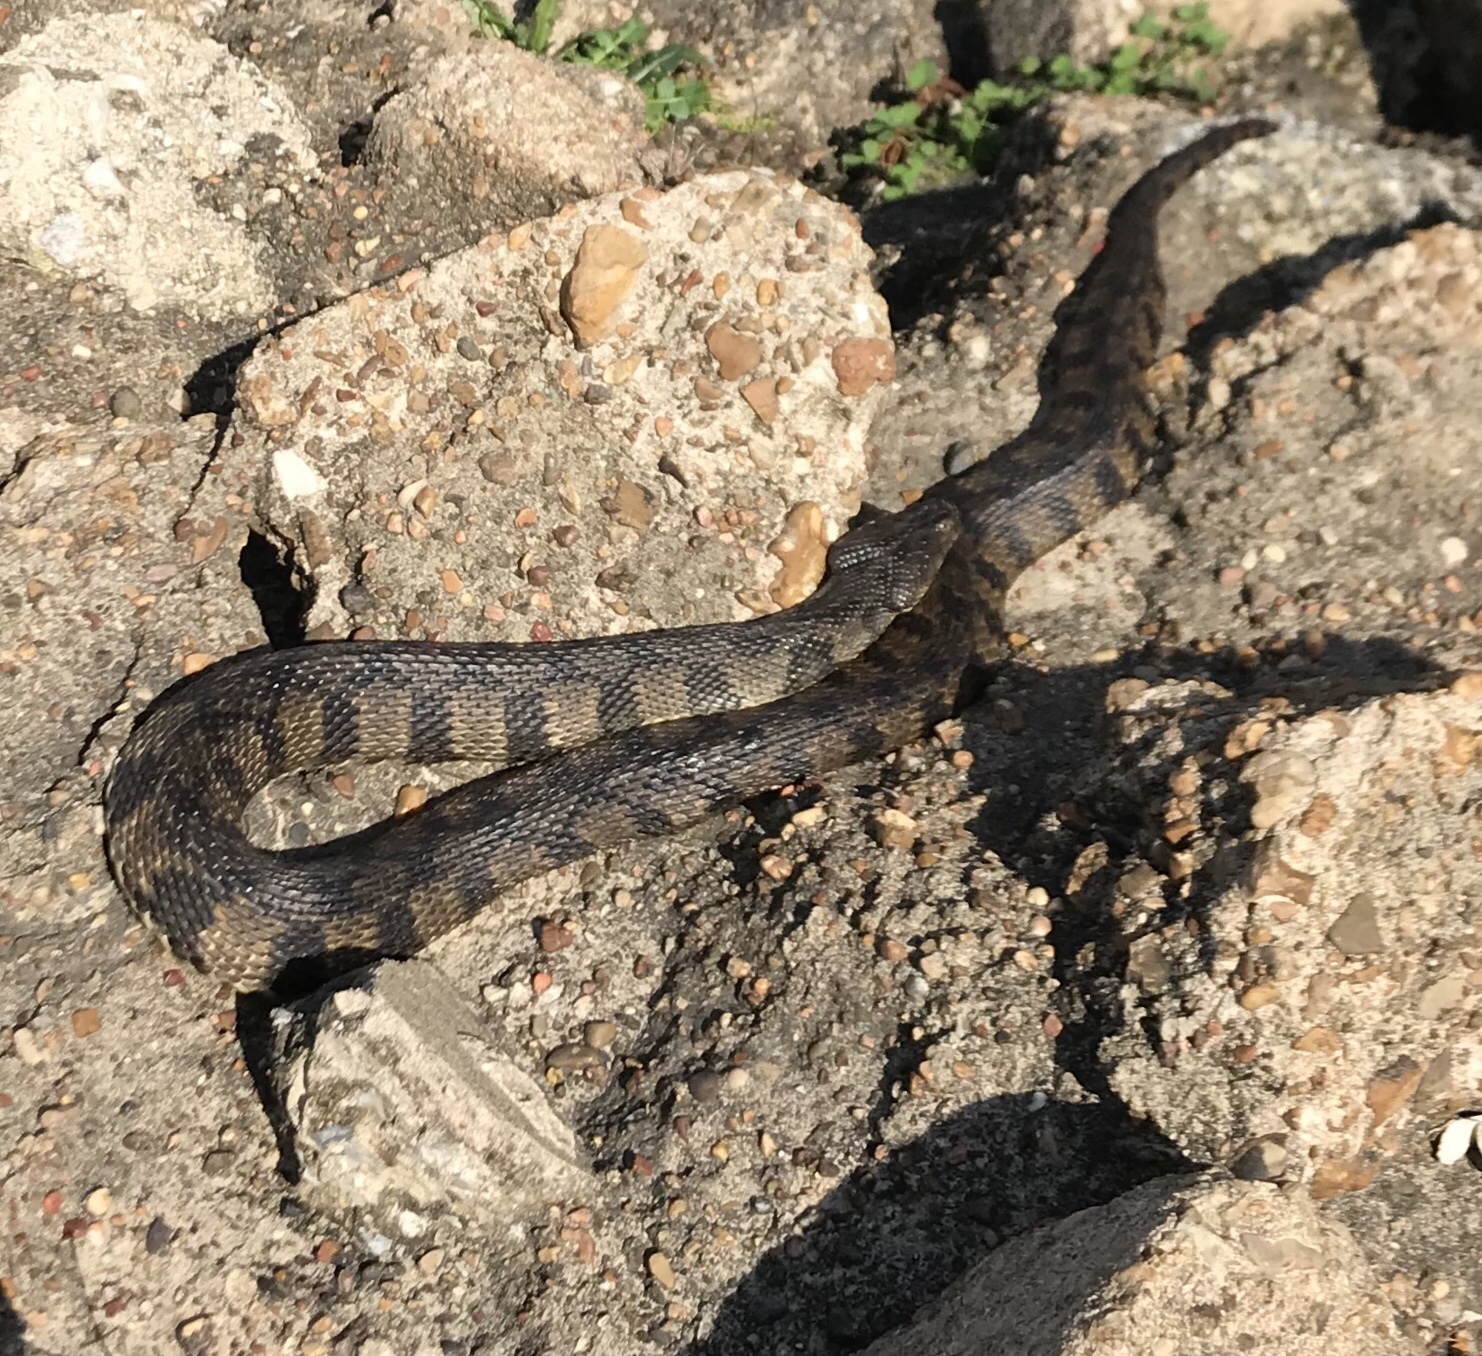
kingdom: Animalia
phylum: Chordata
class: Squamata
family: Colubridae
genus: Nerodia
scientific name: Nerodia rhombifer
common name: Diamondback water snake
